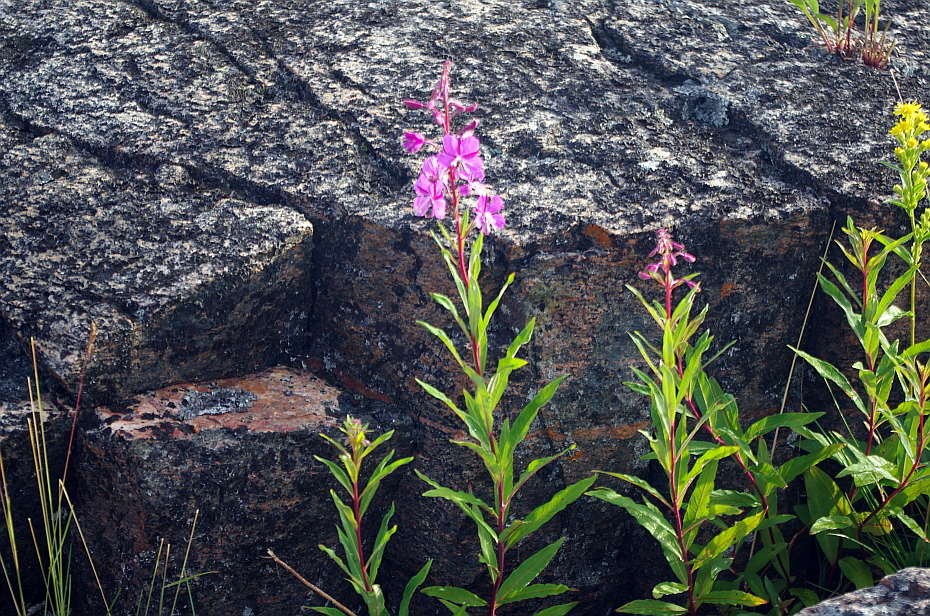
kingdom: Plantae
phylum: Tracheophyta
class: Magnoliopsida
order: Myrtales
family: Onagraceae
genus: Chamaenerion
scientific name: Chamaenerion angustifolium
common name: Fireweed
